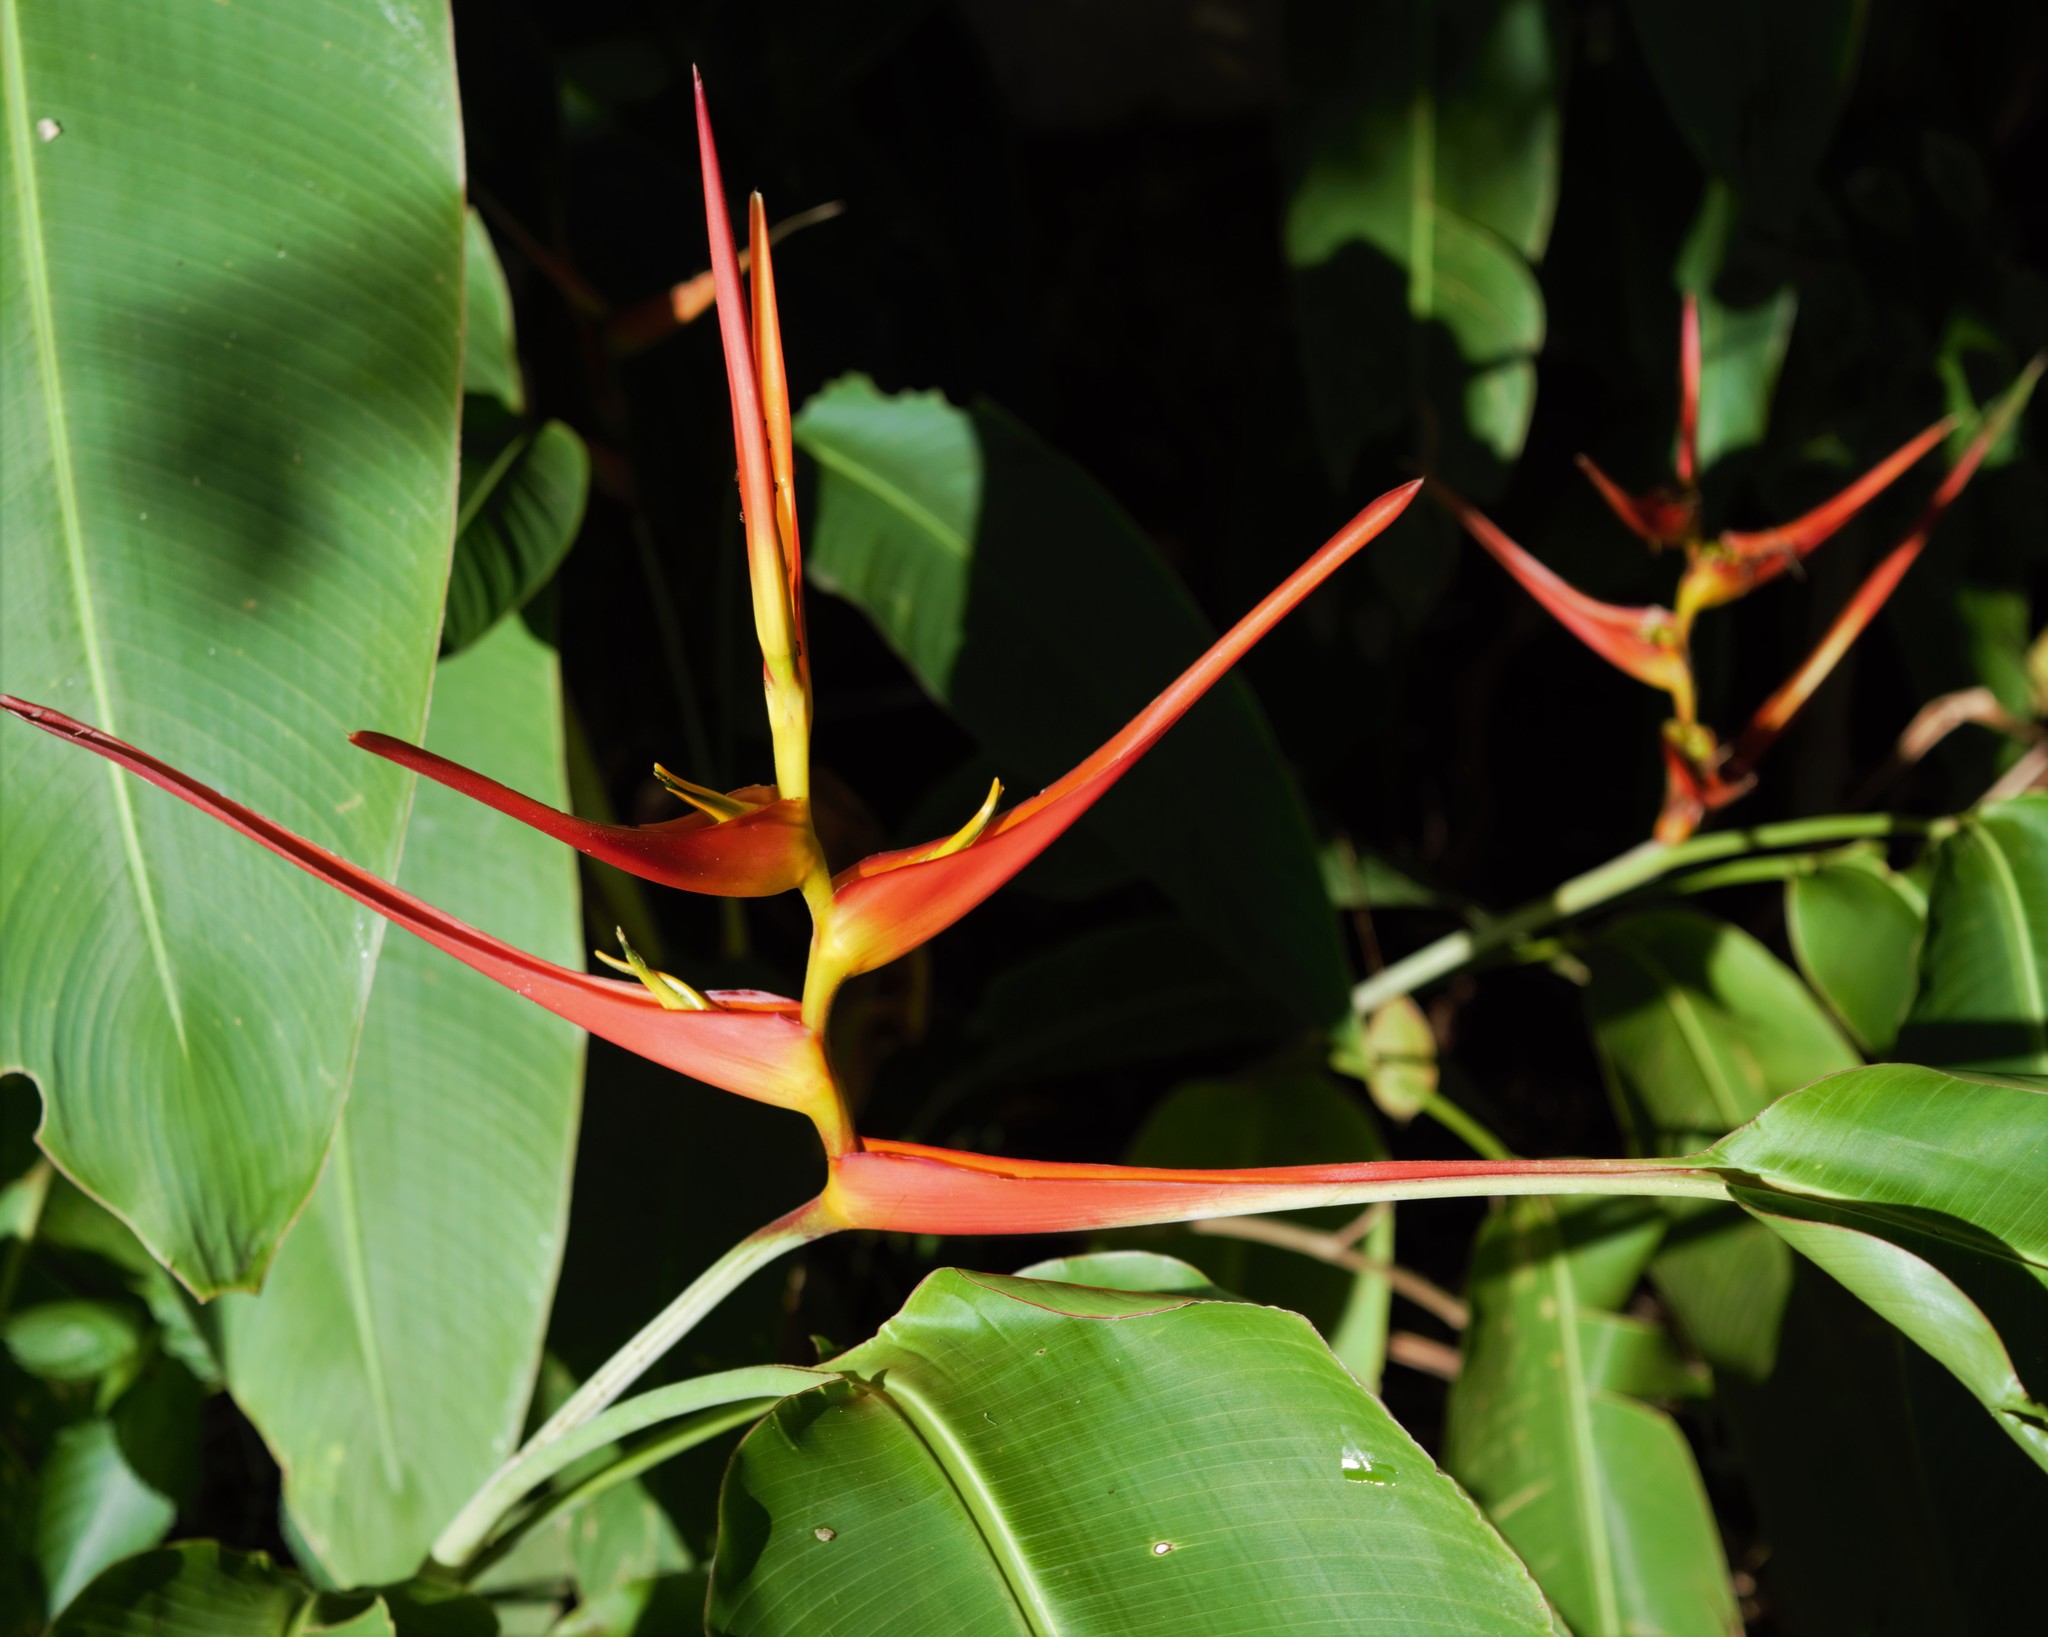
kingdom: Plantae
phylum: Tracheophyta
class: Liliopsida
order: Zingiberales
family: Heliconiaceae
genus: Heliconia
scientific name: Heliconia latispatha
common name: Expanded lobsterclaw
